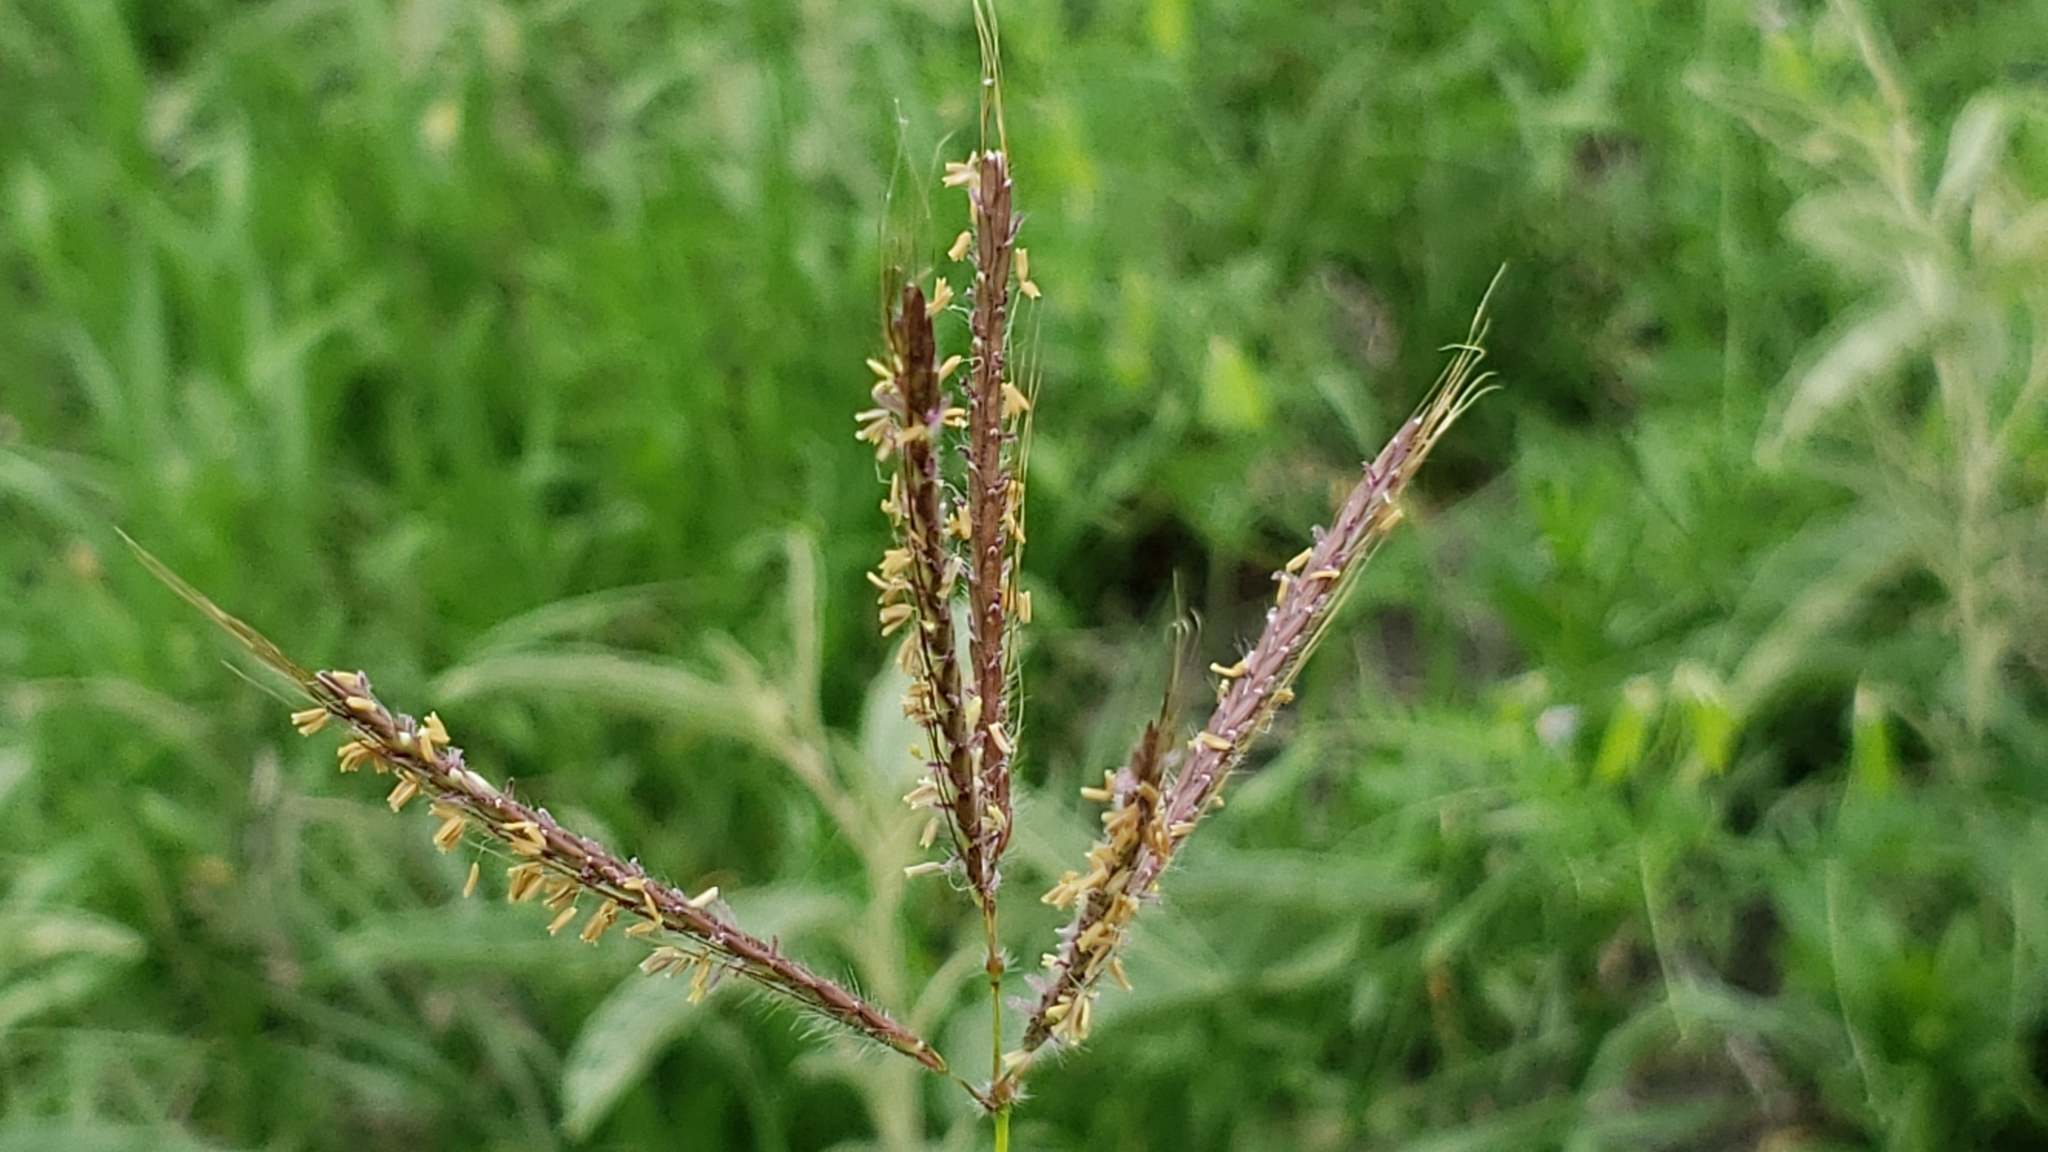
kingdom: Plantae
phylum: Tracheophyta
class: Liliopsida
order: Poales
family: Poaceae
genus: Dichanthium
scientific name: Dichanthium annulatum
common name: Kleberg's bluestem
